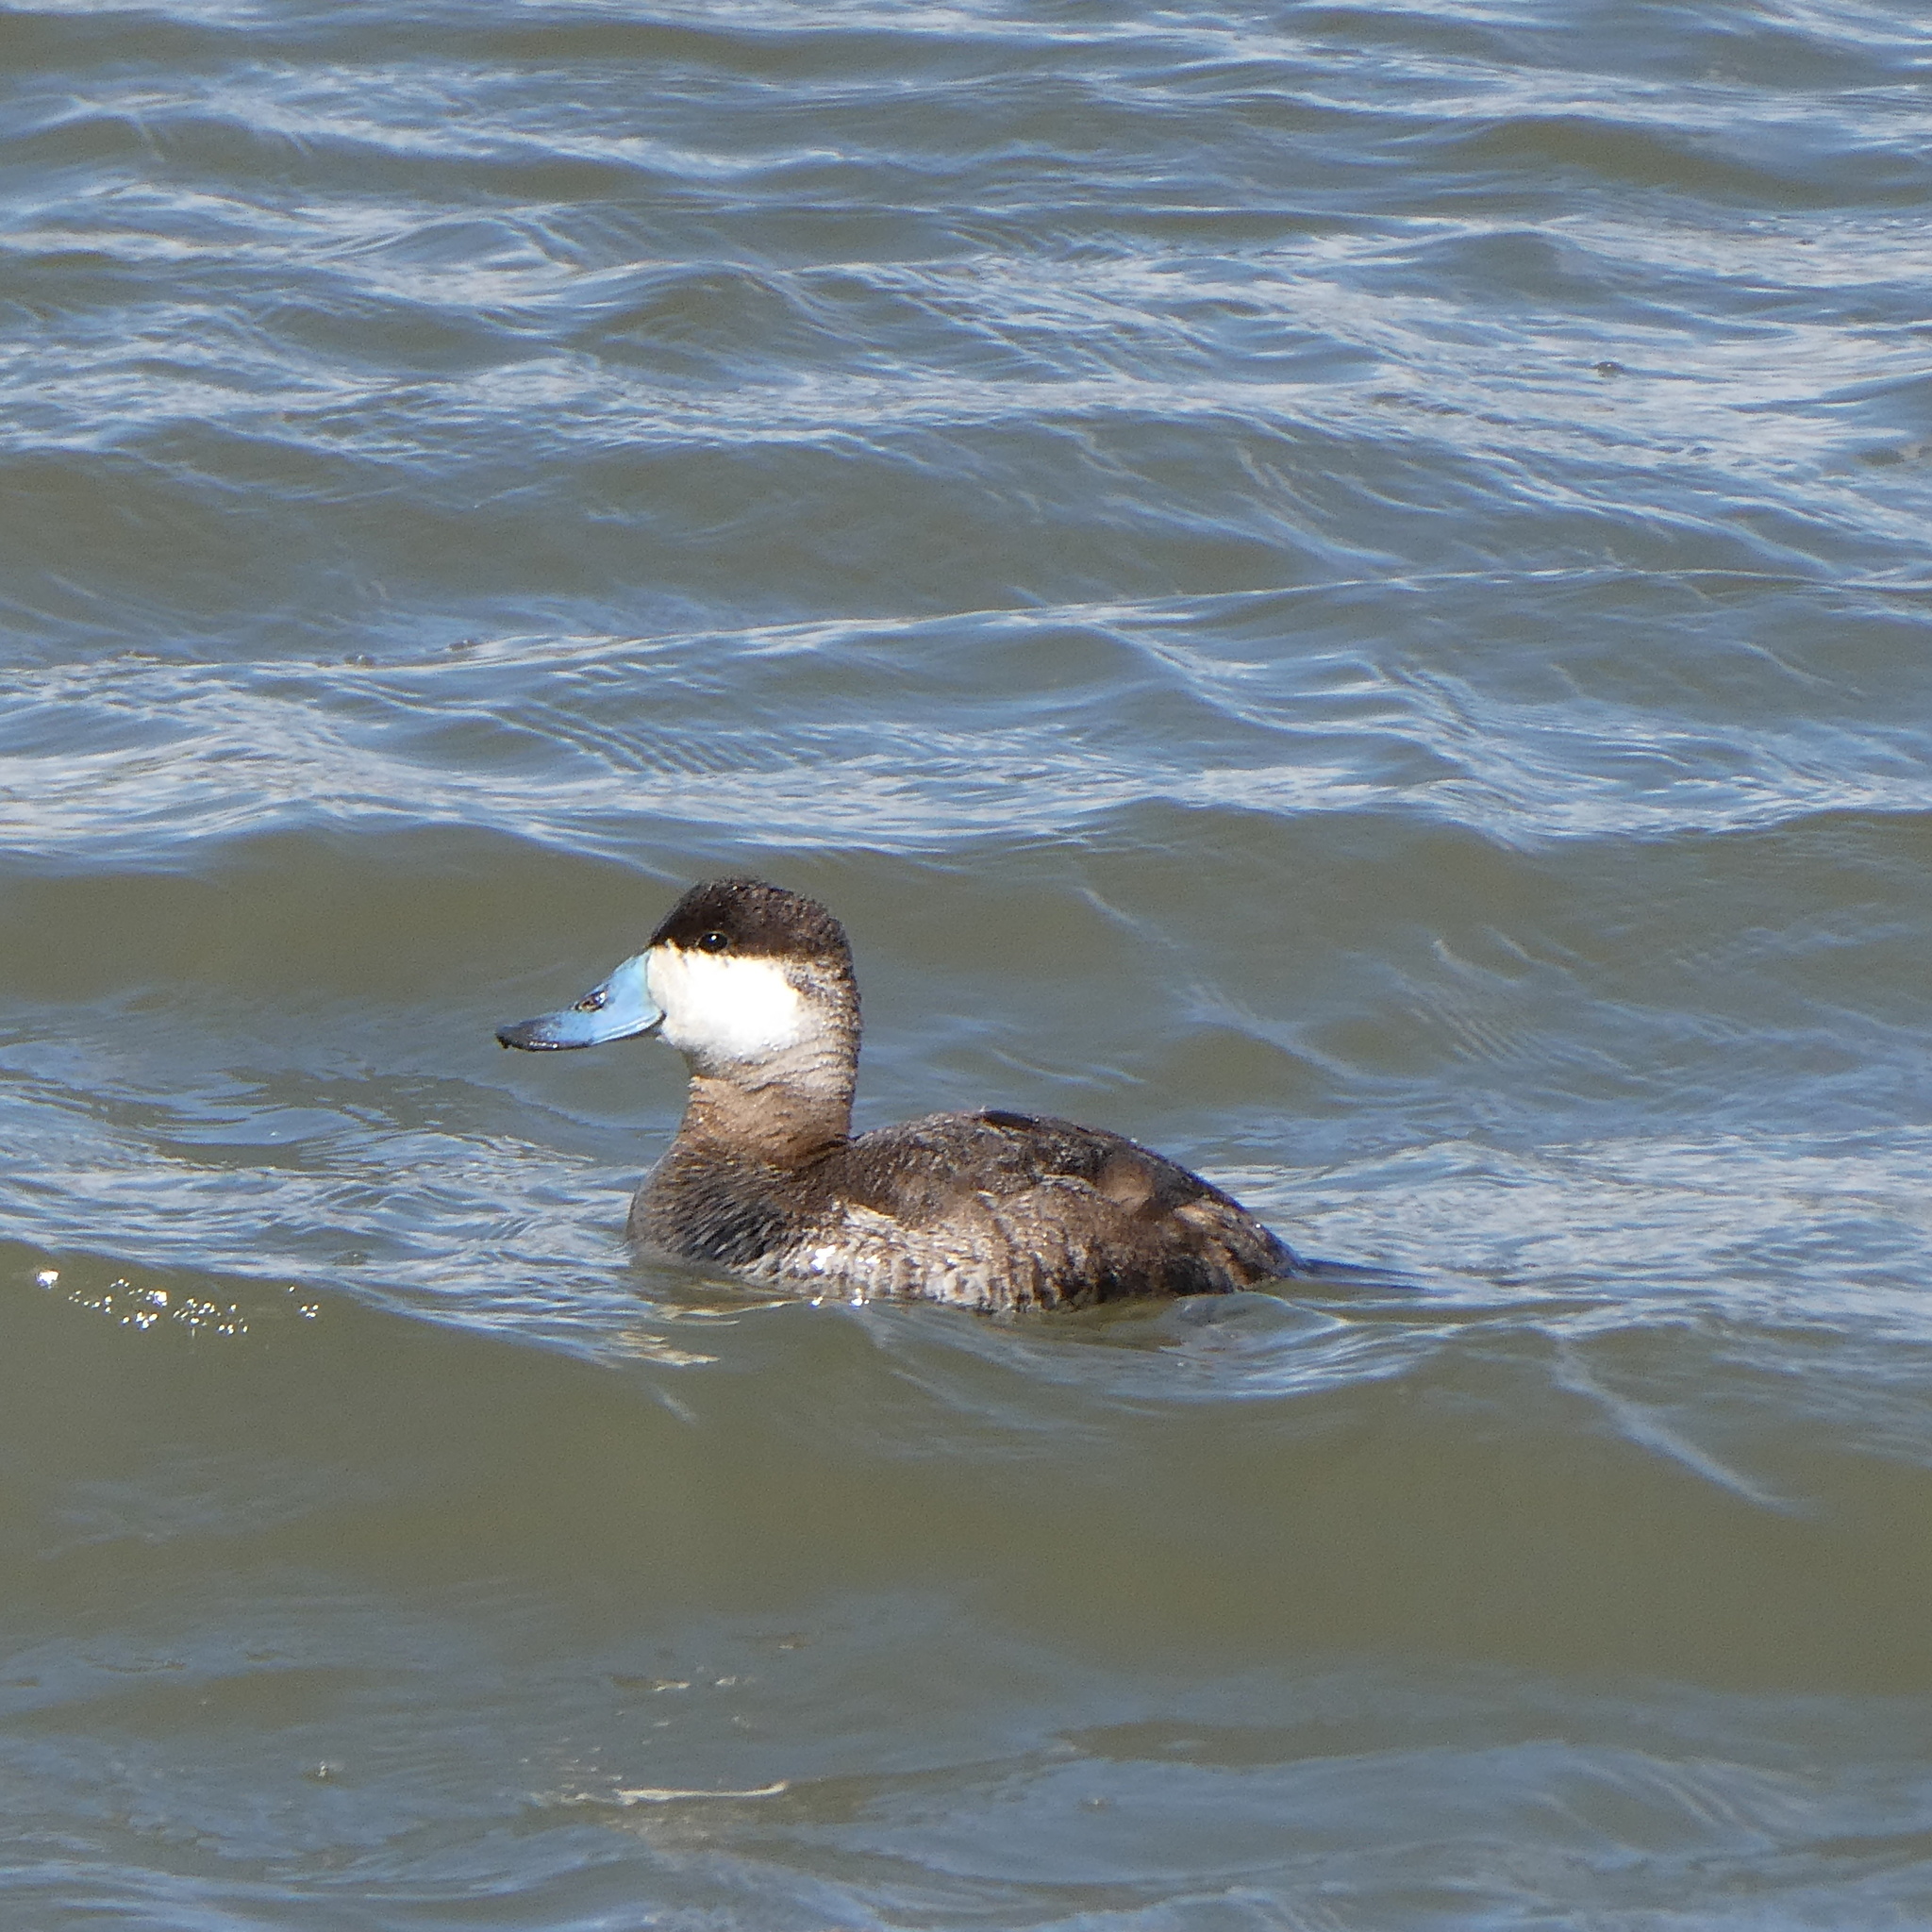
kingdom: Animalia
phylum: Chordata
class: Aves
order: Anseriformes
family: Anatidae
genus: Oxyura
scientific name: Oxyura jamaicensis
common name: Ruddy duck
